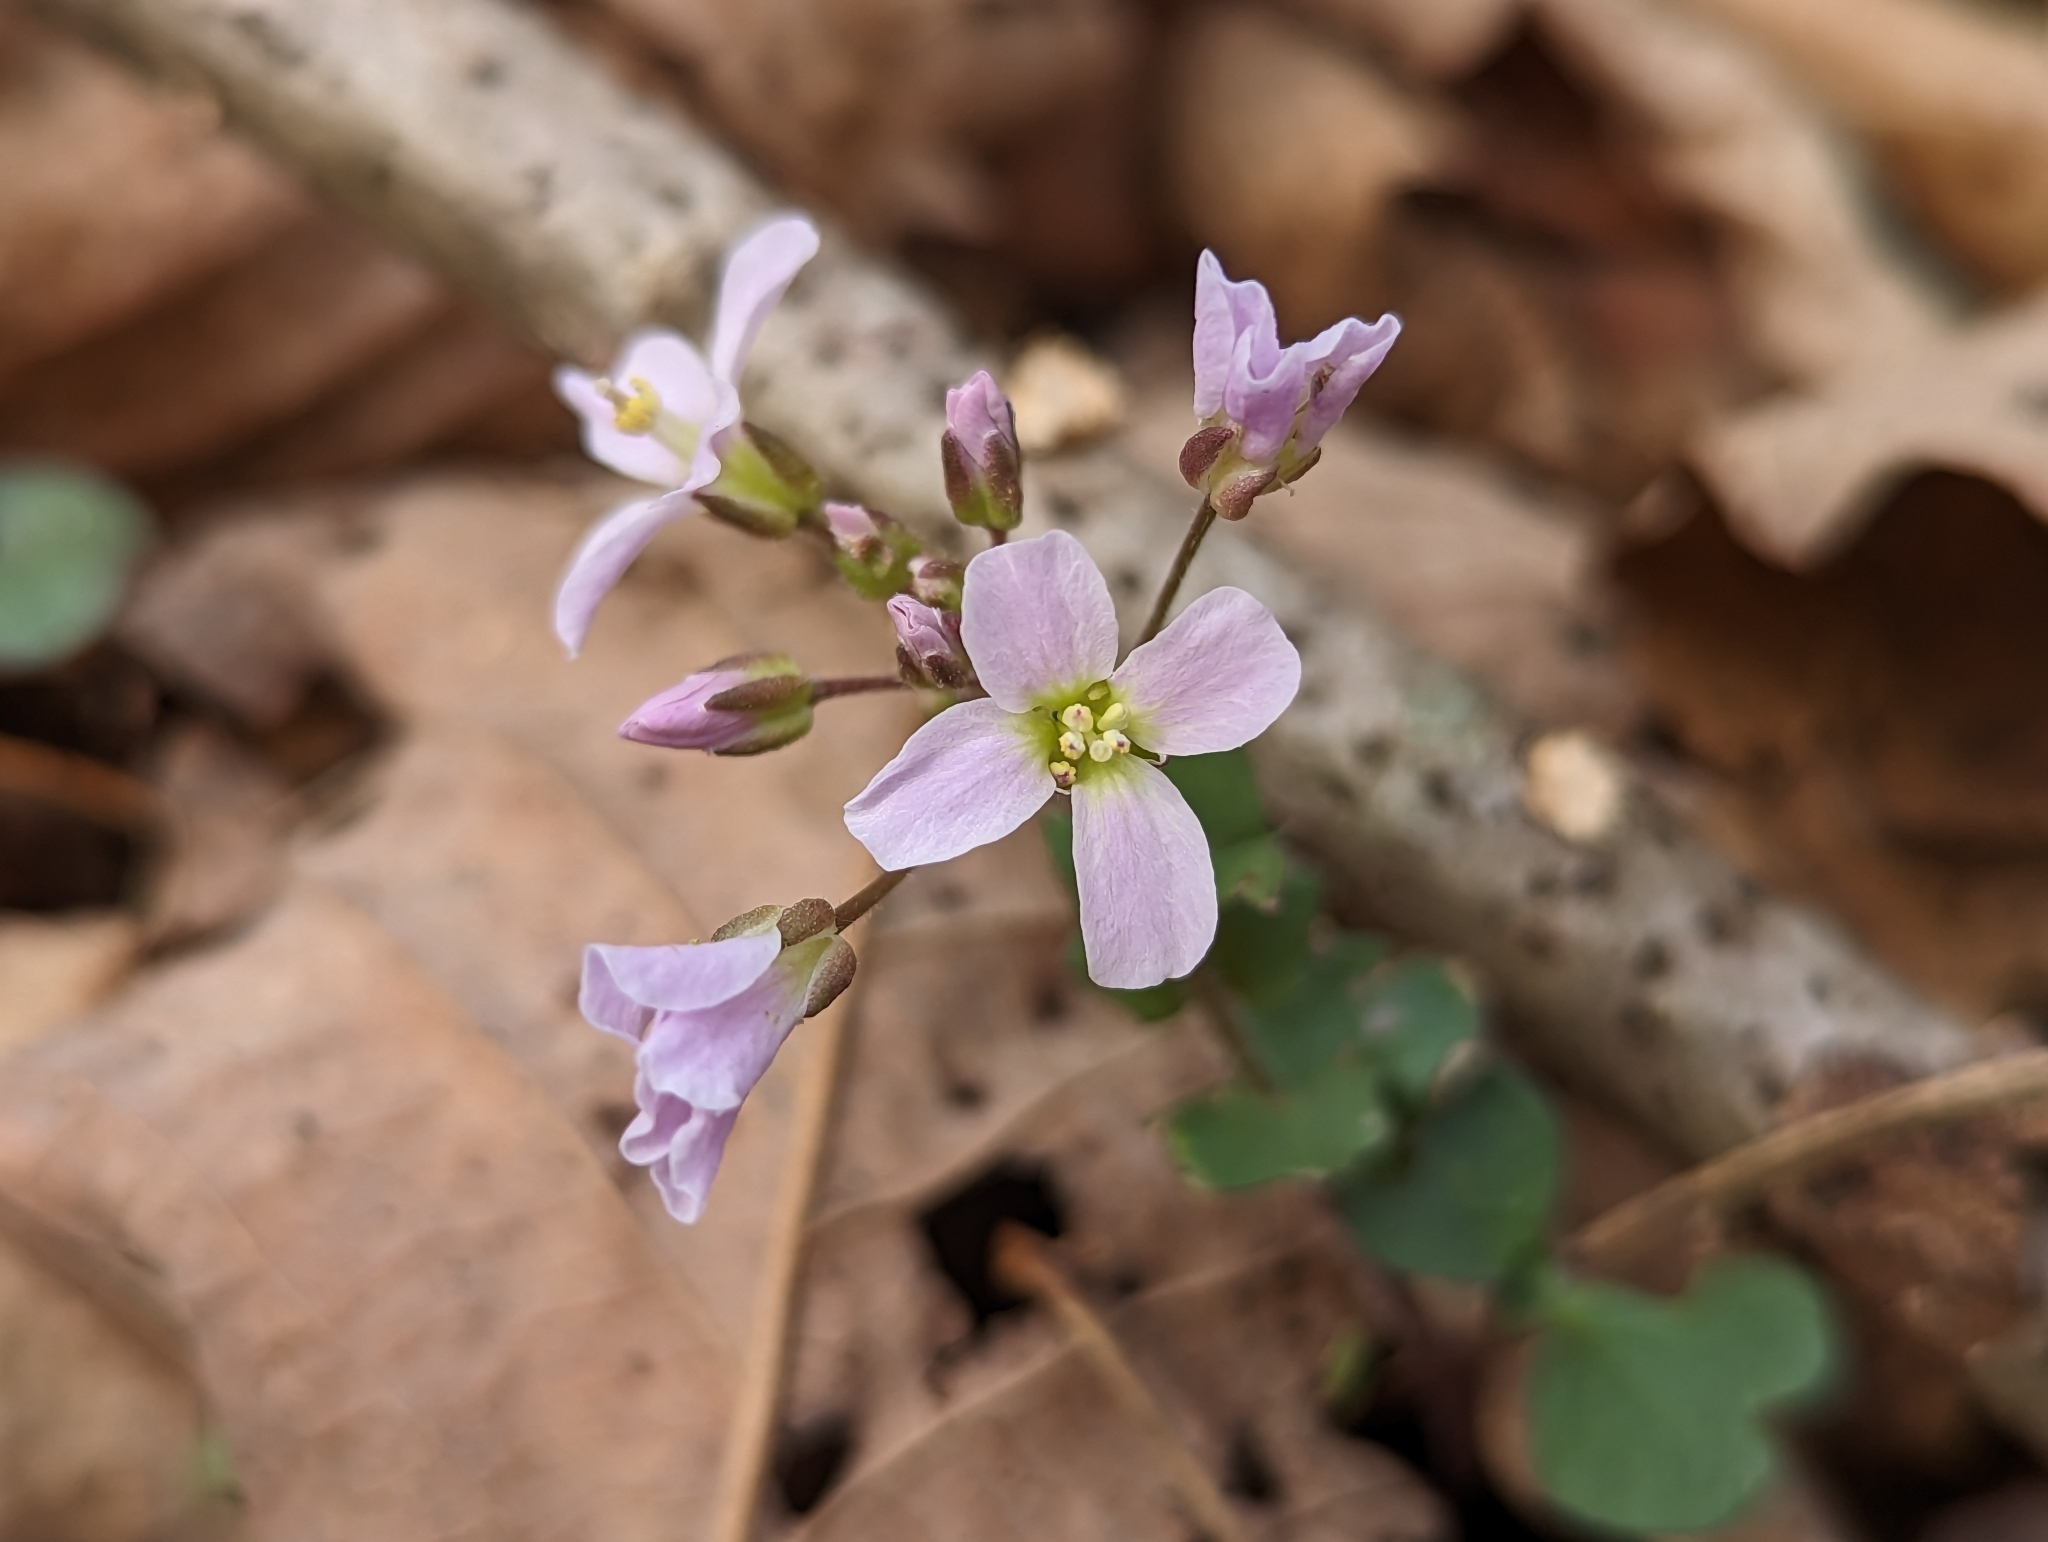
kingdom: Plantae
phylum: Tracheophyta
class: Magnoliopsida
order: Brassicales
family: Brassicaceae
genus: Cardamine
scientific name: Cardamine douglassii
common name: Purple cress
